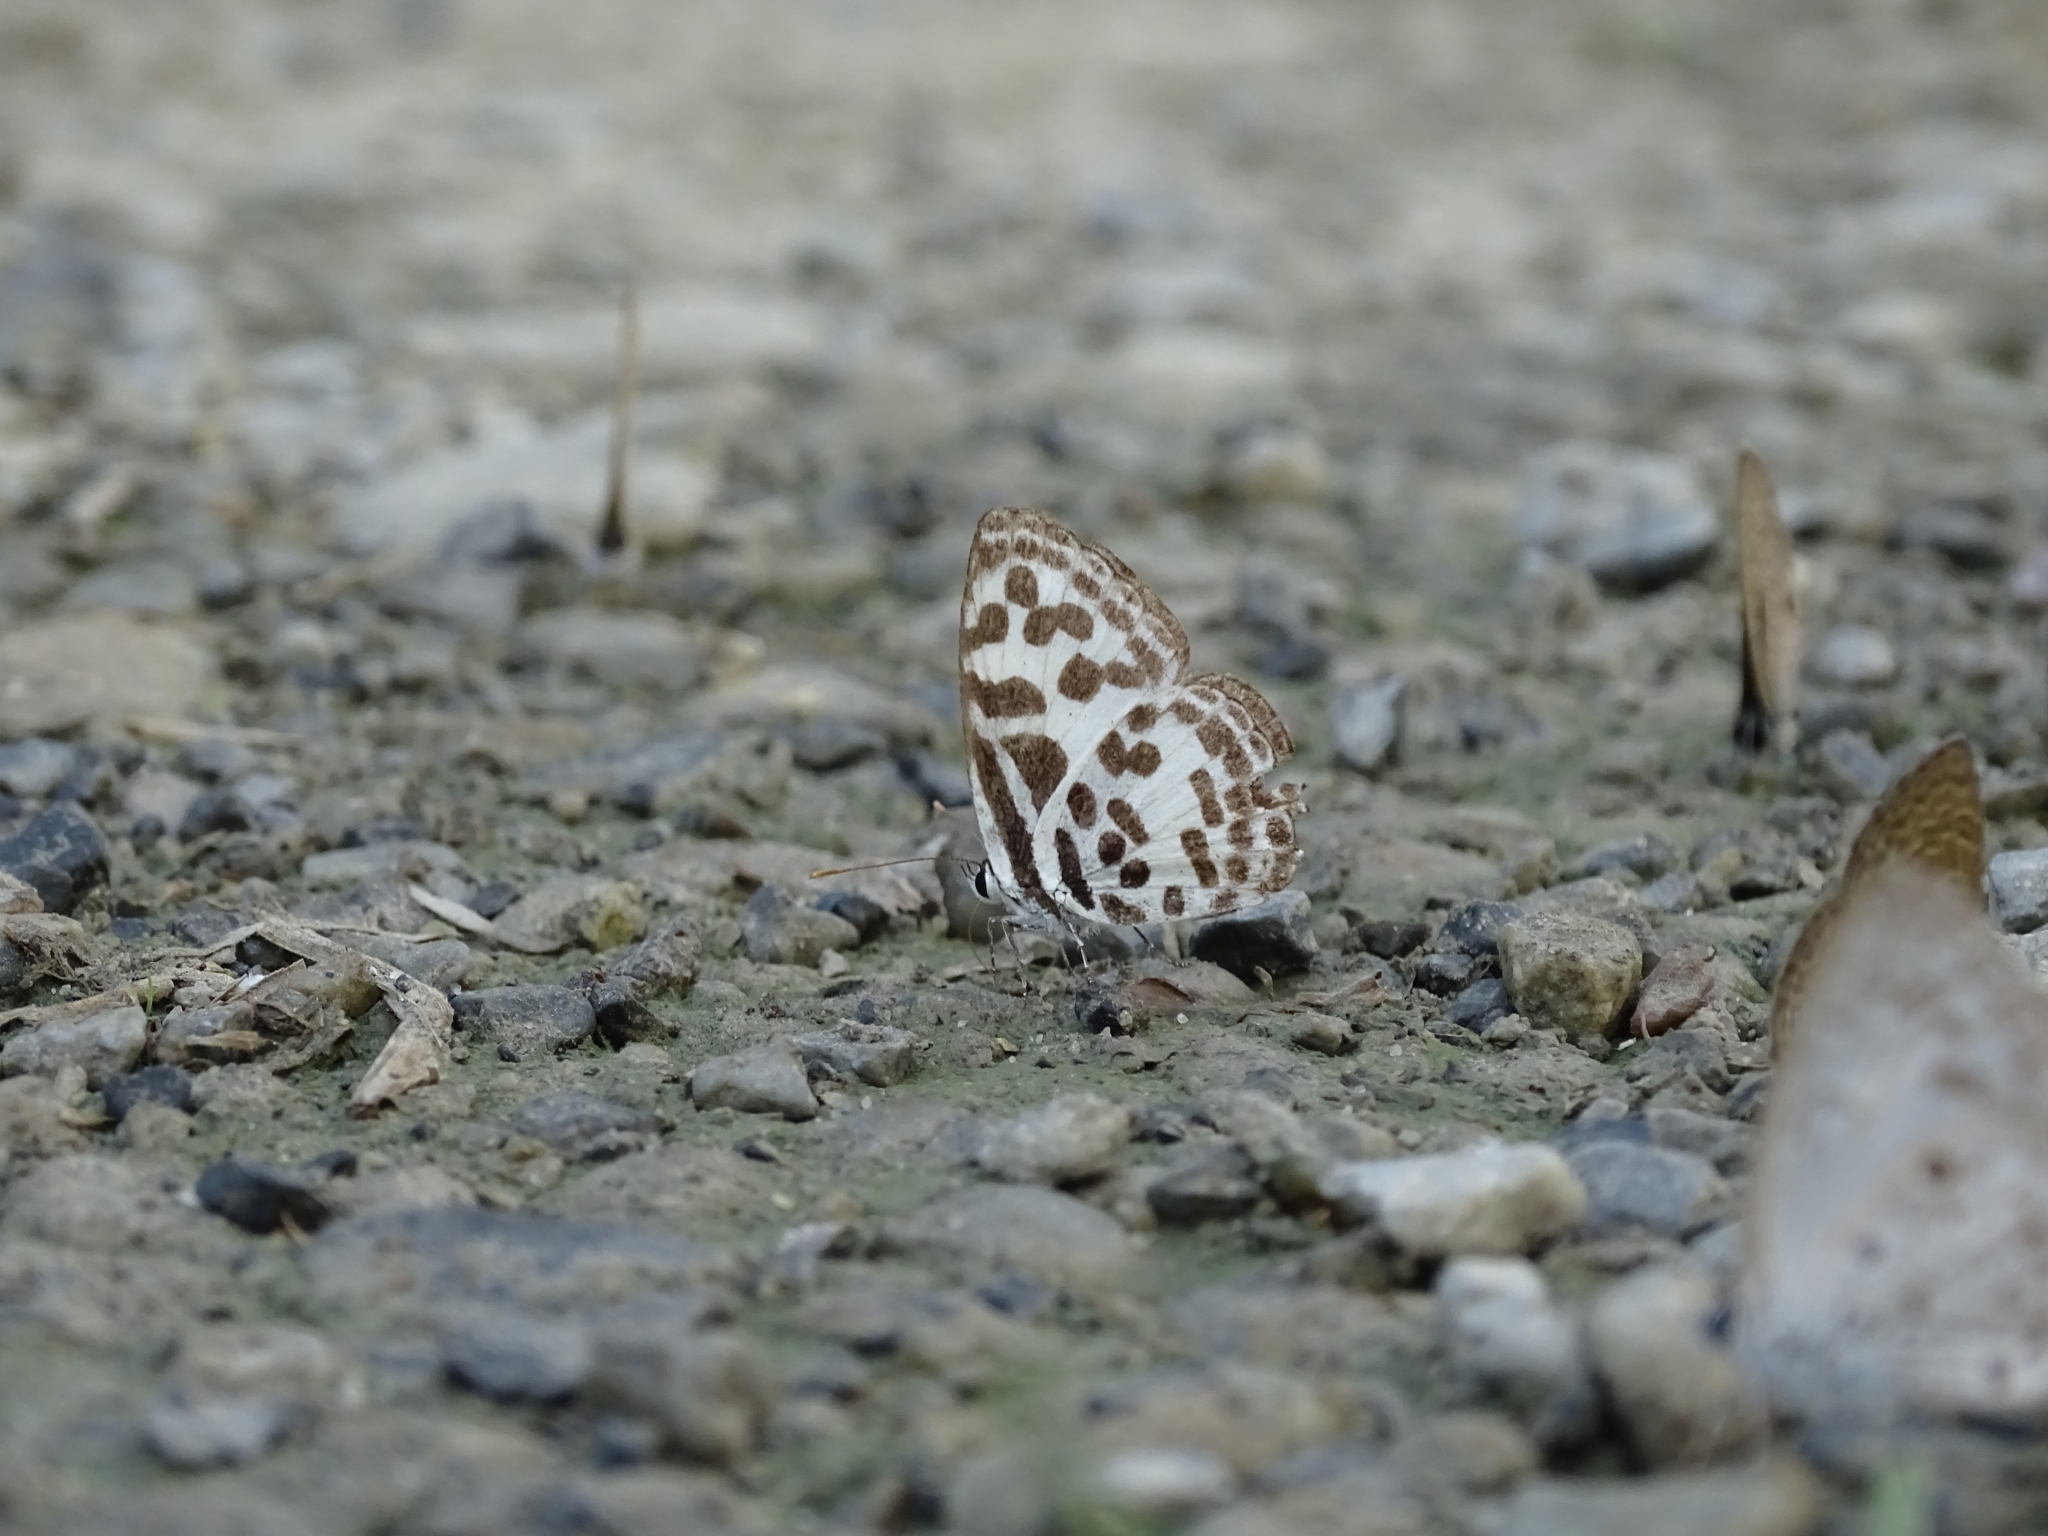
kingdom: Animalia
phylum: Arthropoda
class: Insecta
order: Lepidoptera
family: Lycaenidae
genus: Castalius
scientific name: Castalius rosimon
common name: Common pierrot
